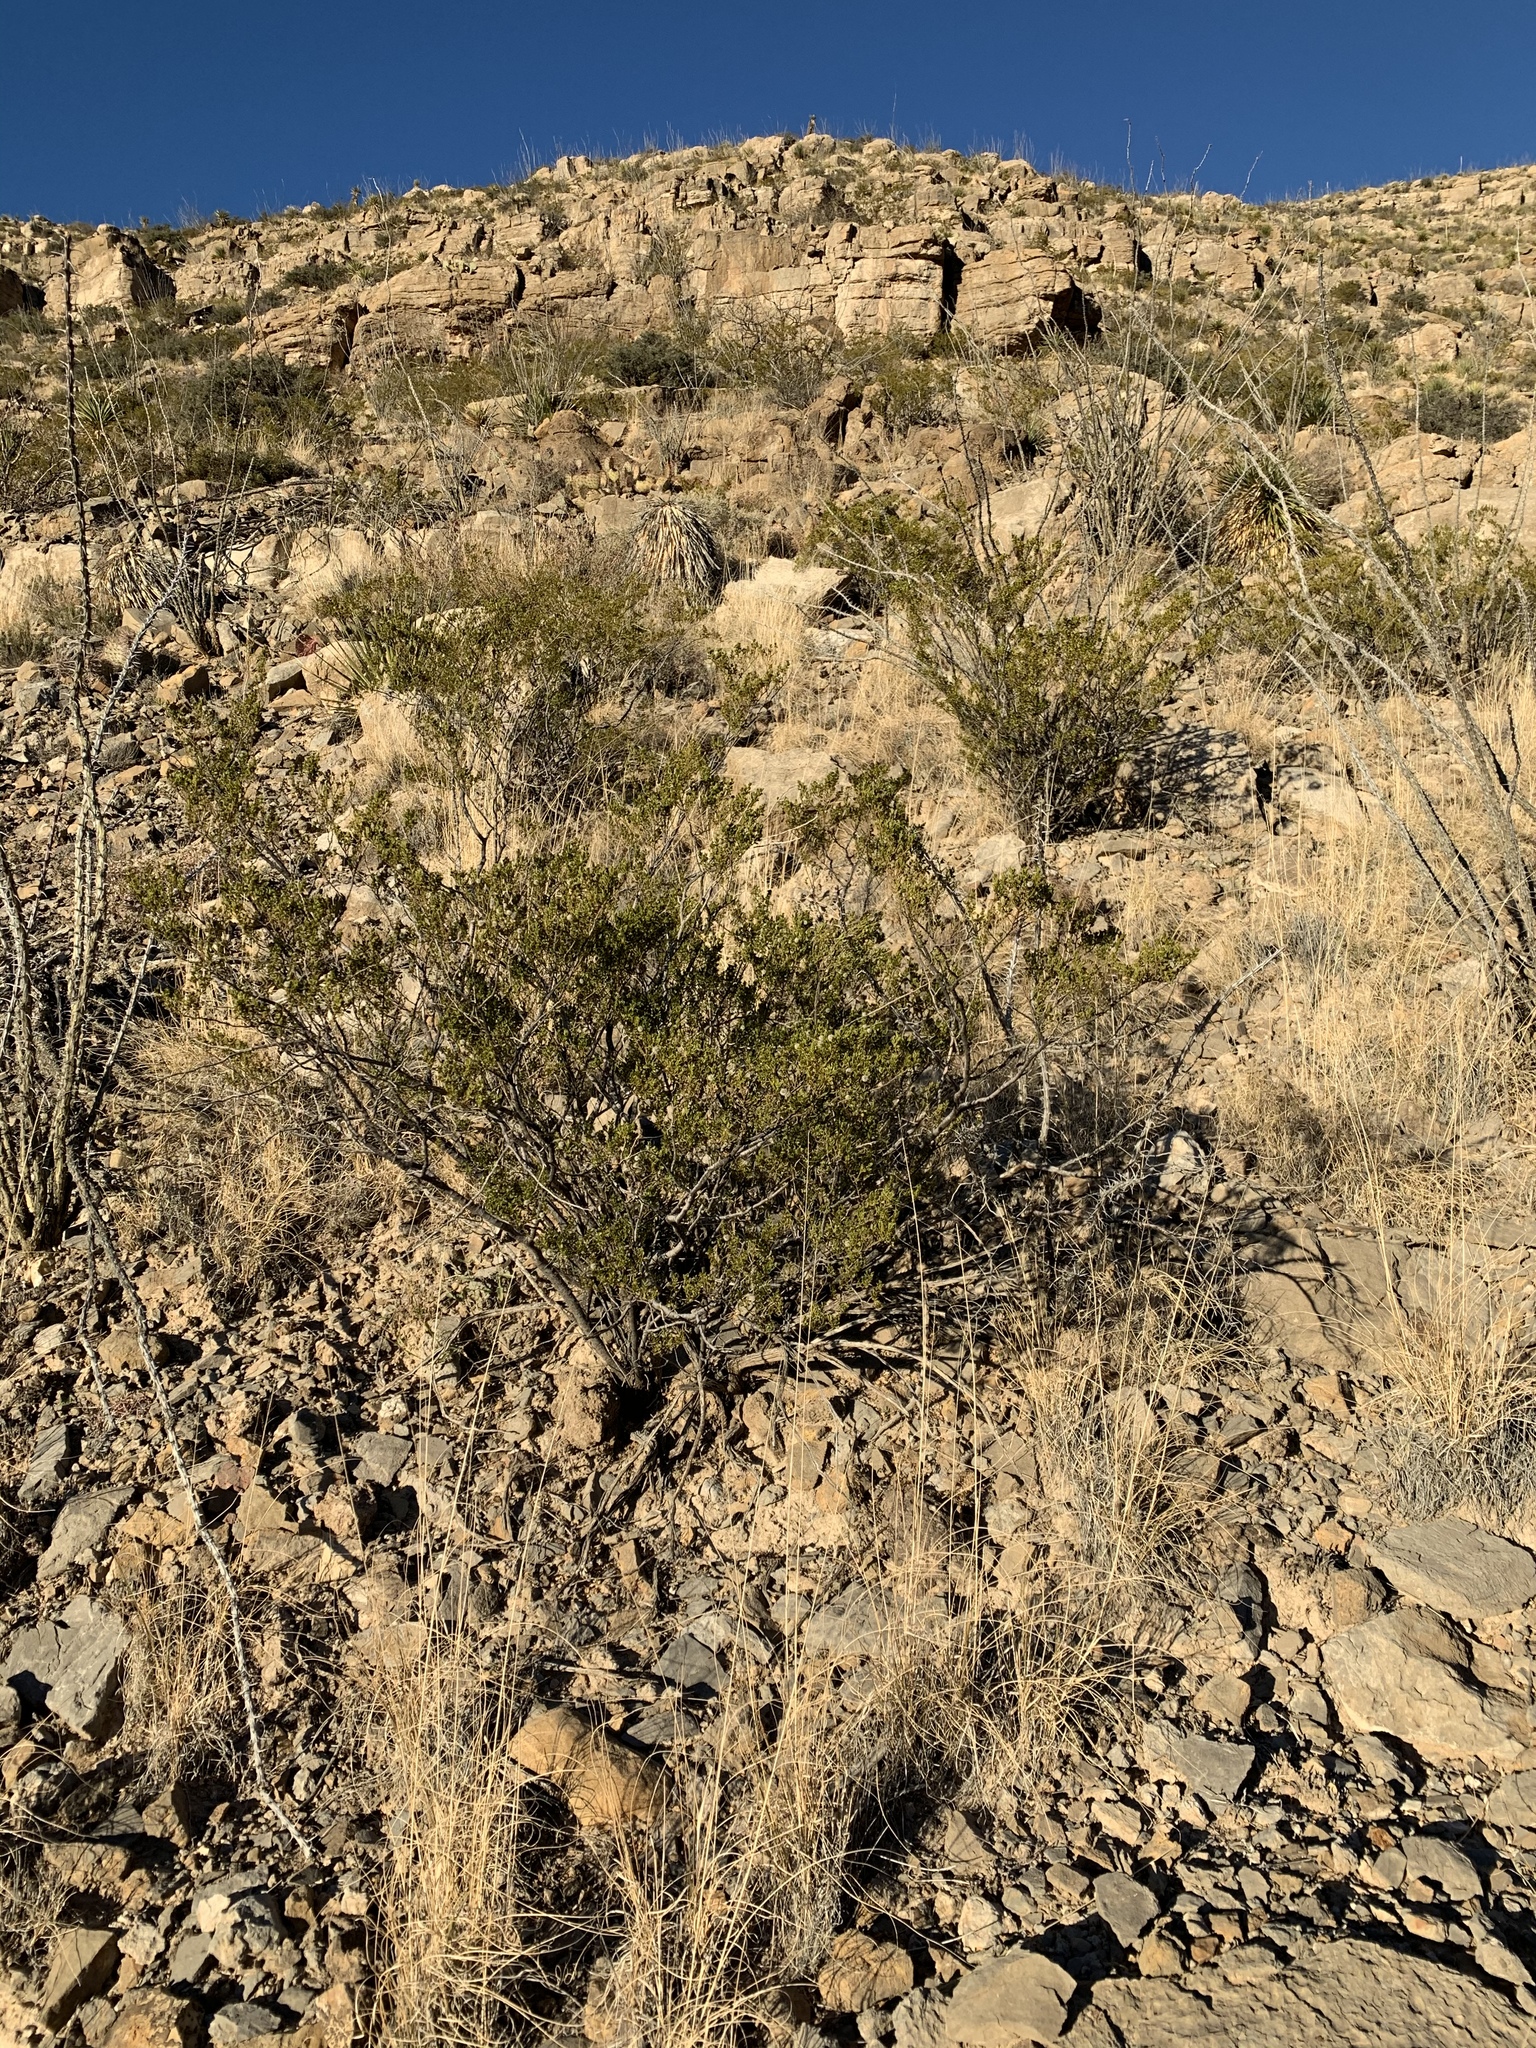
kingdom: Plantae
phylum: Tracheophyta
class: Magnoliopsida
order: Zygophyllales
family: Zygophyllaceae
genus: Larrea
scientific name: Larrea tridentata
